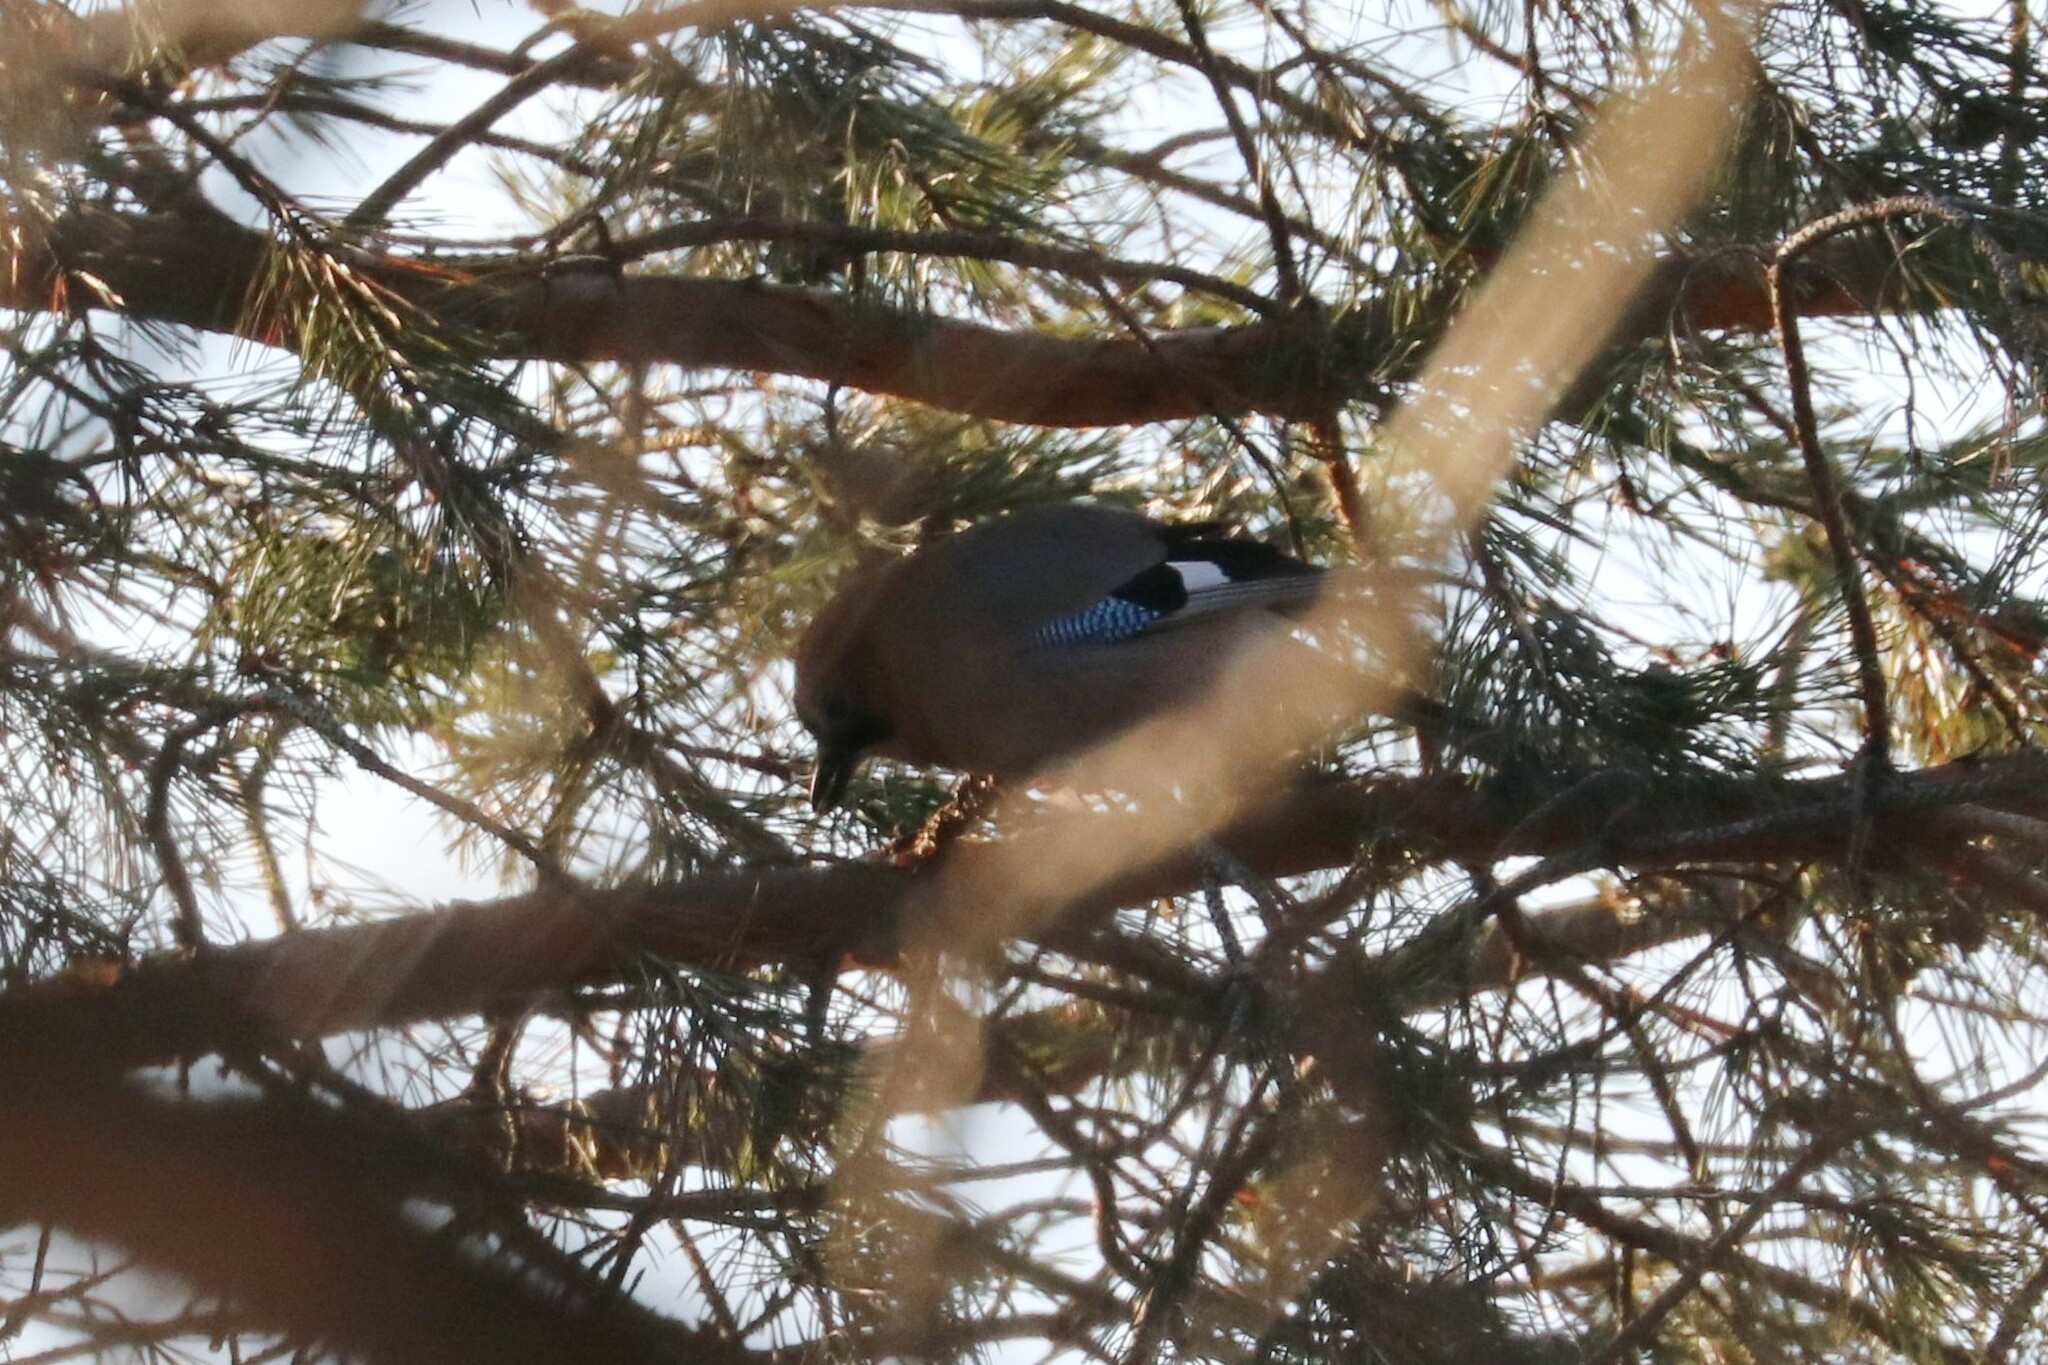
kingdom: Animalia
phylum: Chordata
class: Aves
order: Passeriformes
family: Corvidae
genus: Garrulus
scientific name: Garrulus glandarius
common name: Eurasian jay
